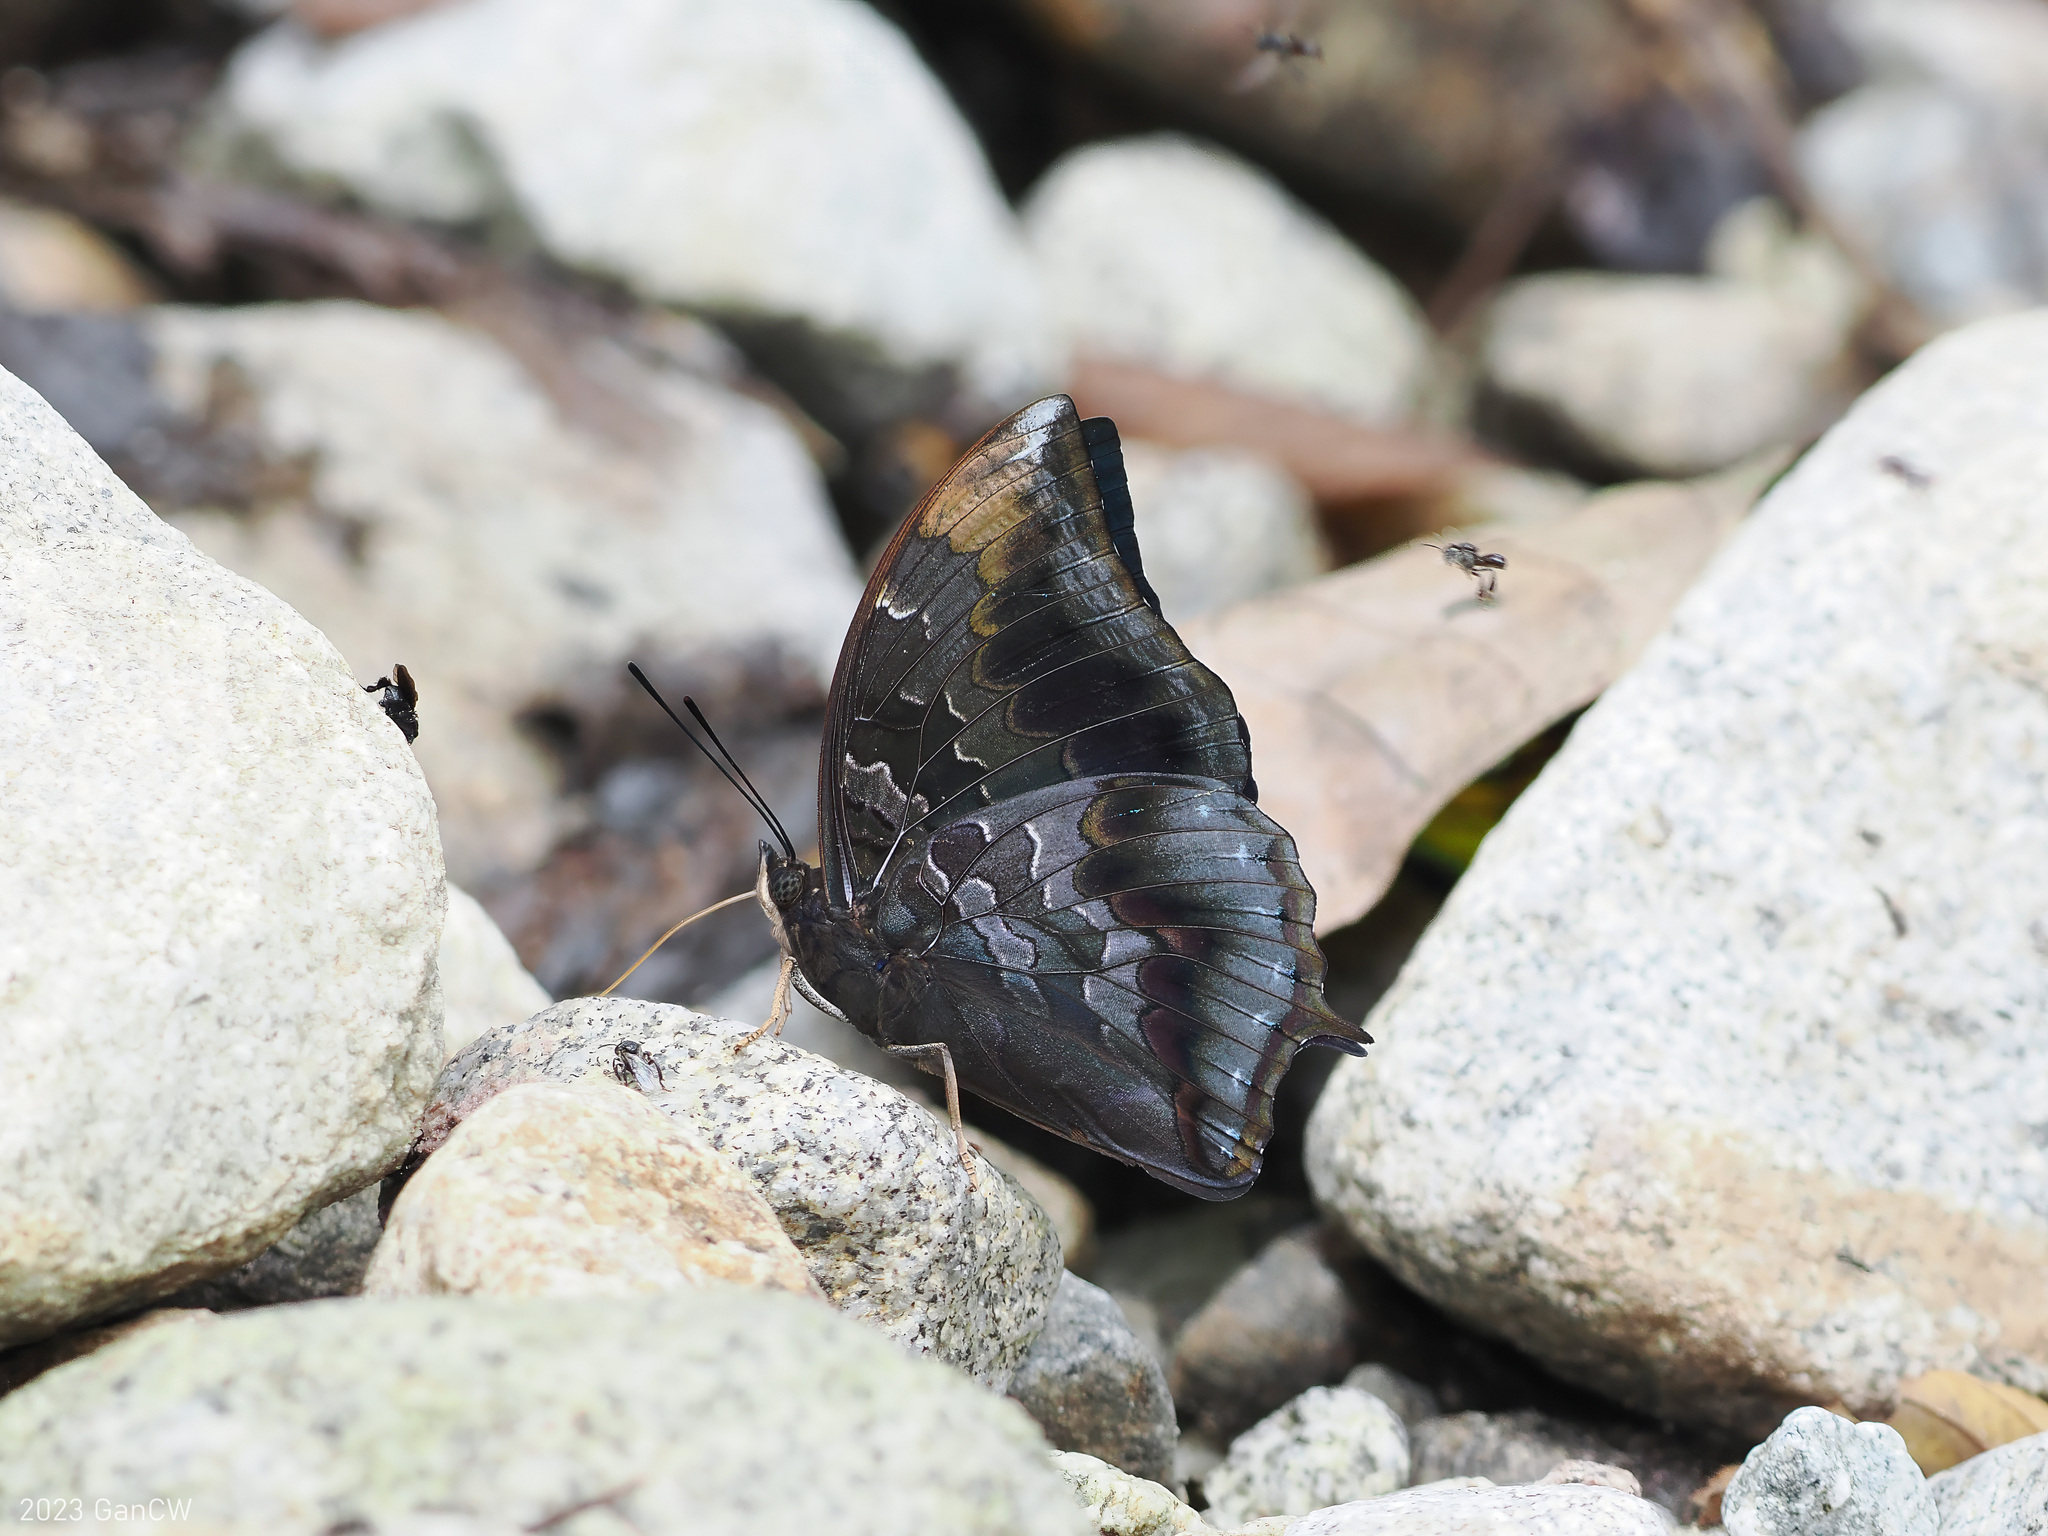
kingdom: Animalia
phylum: Arthropoda
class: Insecta
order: Lepidoptera
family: Nymphalidae
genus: Charaxes
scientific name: Charaxes mars
